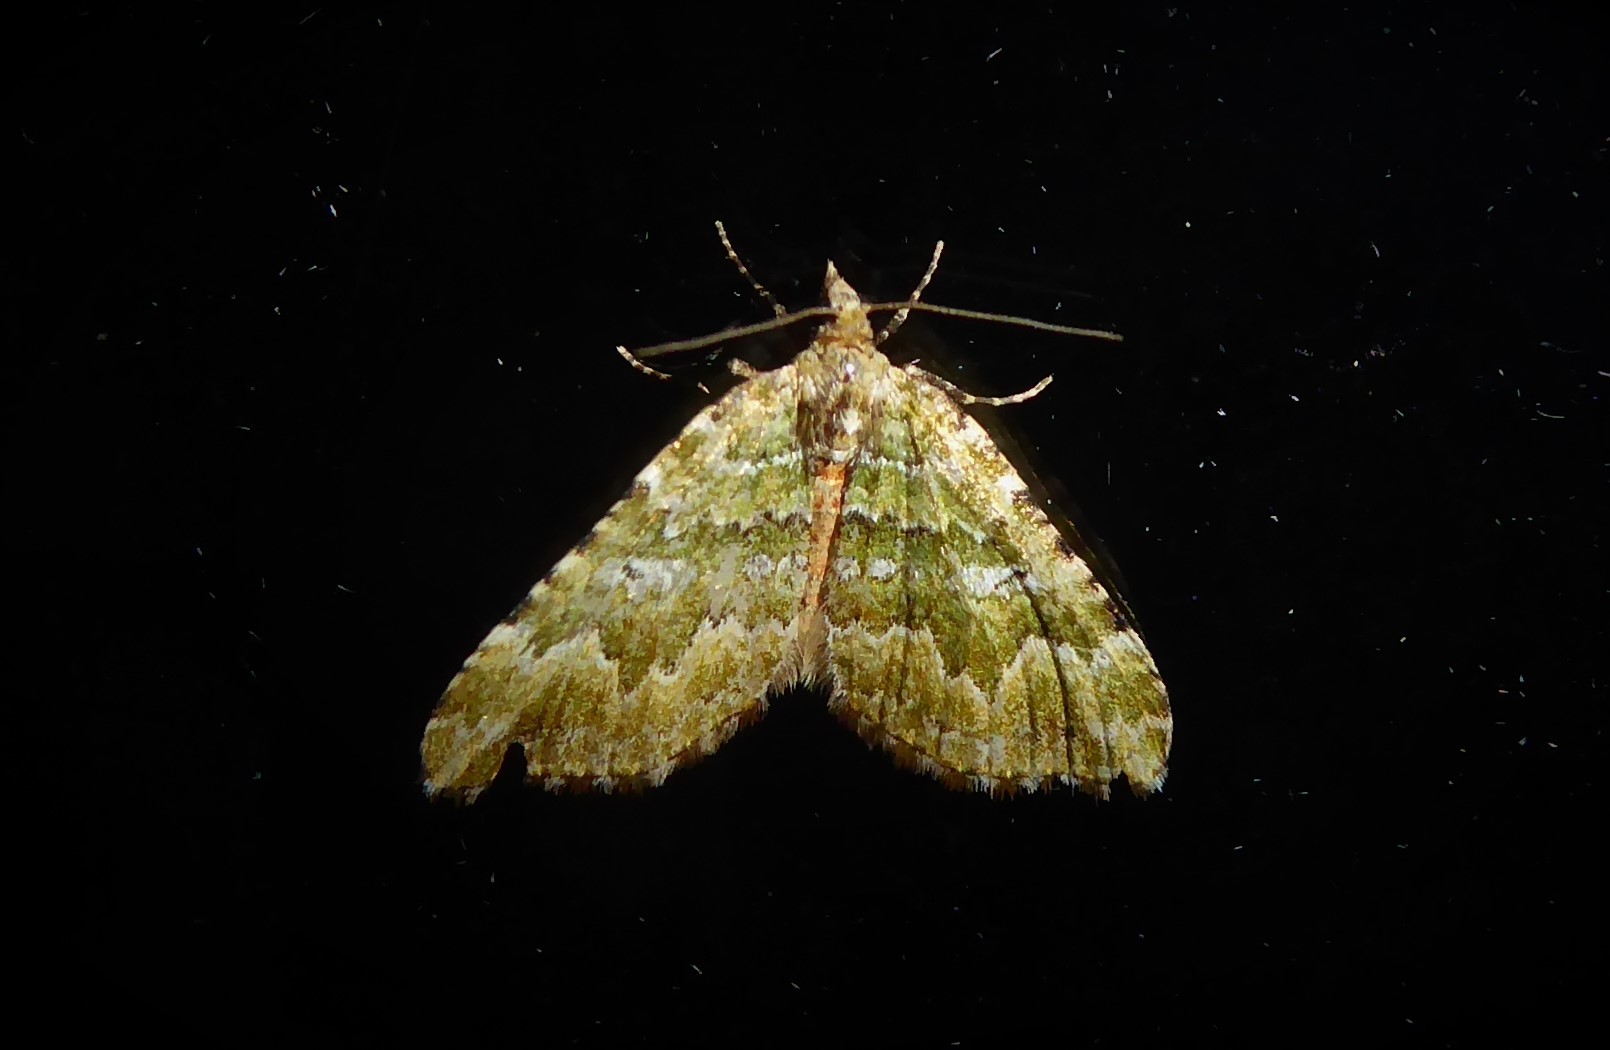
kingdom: Animalia
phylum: Arthropoda
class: Insecta
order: Lepidoptera
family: Geometridae
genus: Asaphodes
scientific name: Asaphodes beata
